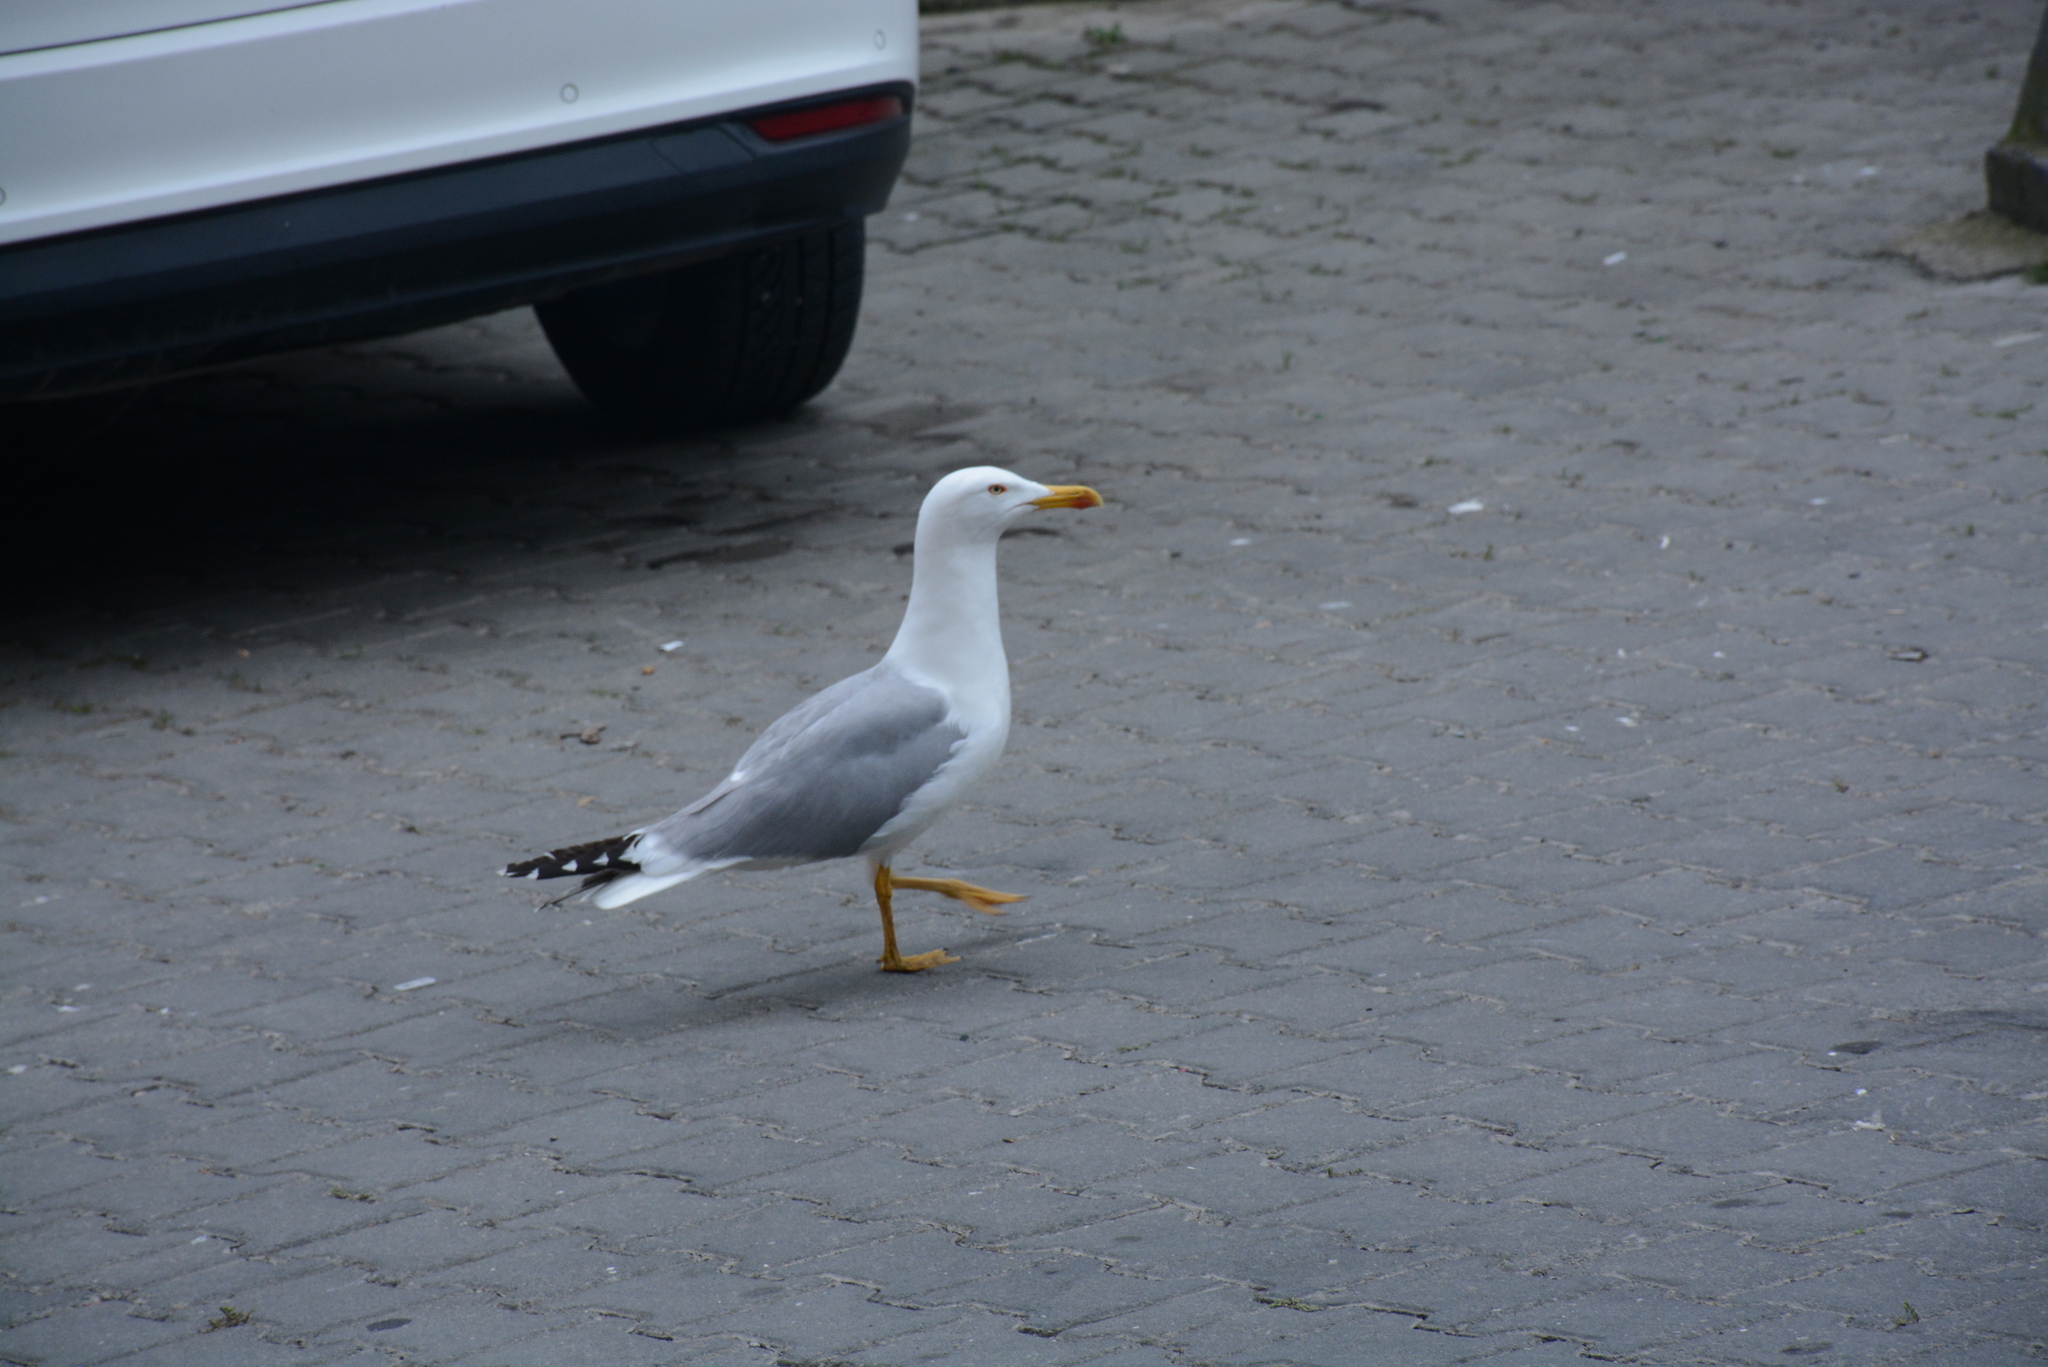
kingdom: Animalia
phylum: Chordata
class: Aves
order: Charadriiformes
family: Laridae
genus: Larus
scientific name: Larus michahellis
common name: Yellow-legged gull
